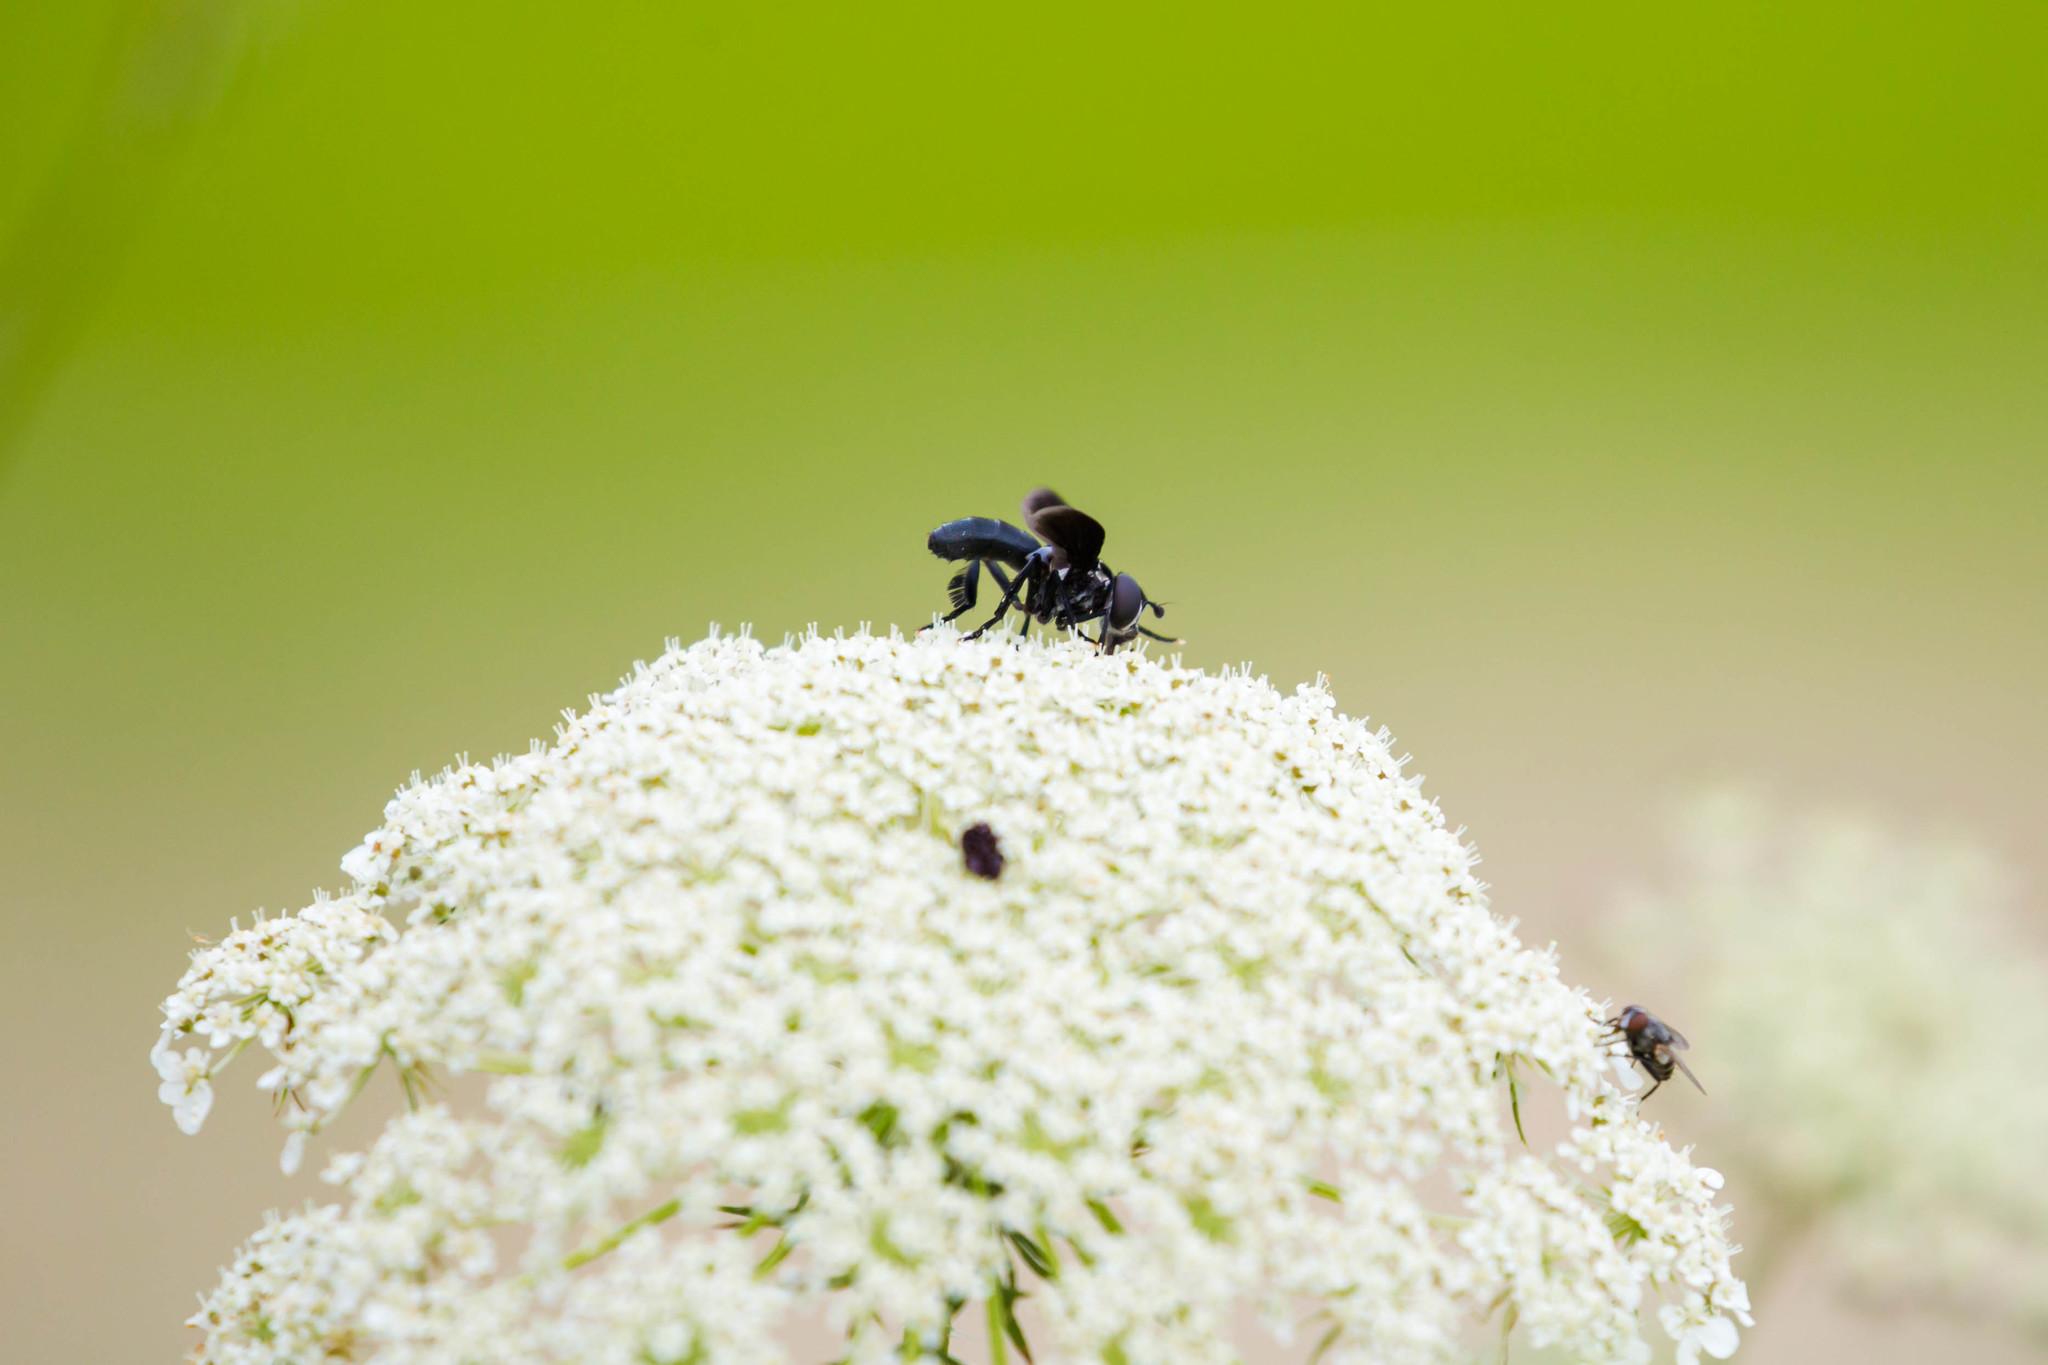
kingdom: Animalia
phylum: Arthropoda
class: Insecta
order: Diptera
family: Tachinidae
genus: Trichopoda
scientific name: Trichopoda lanipes
